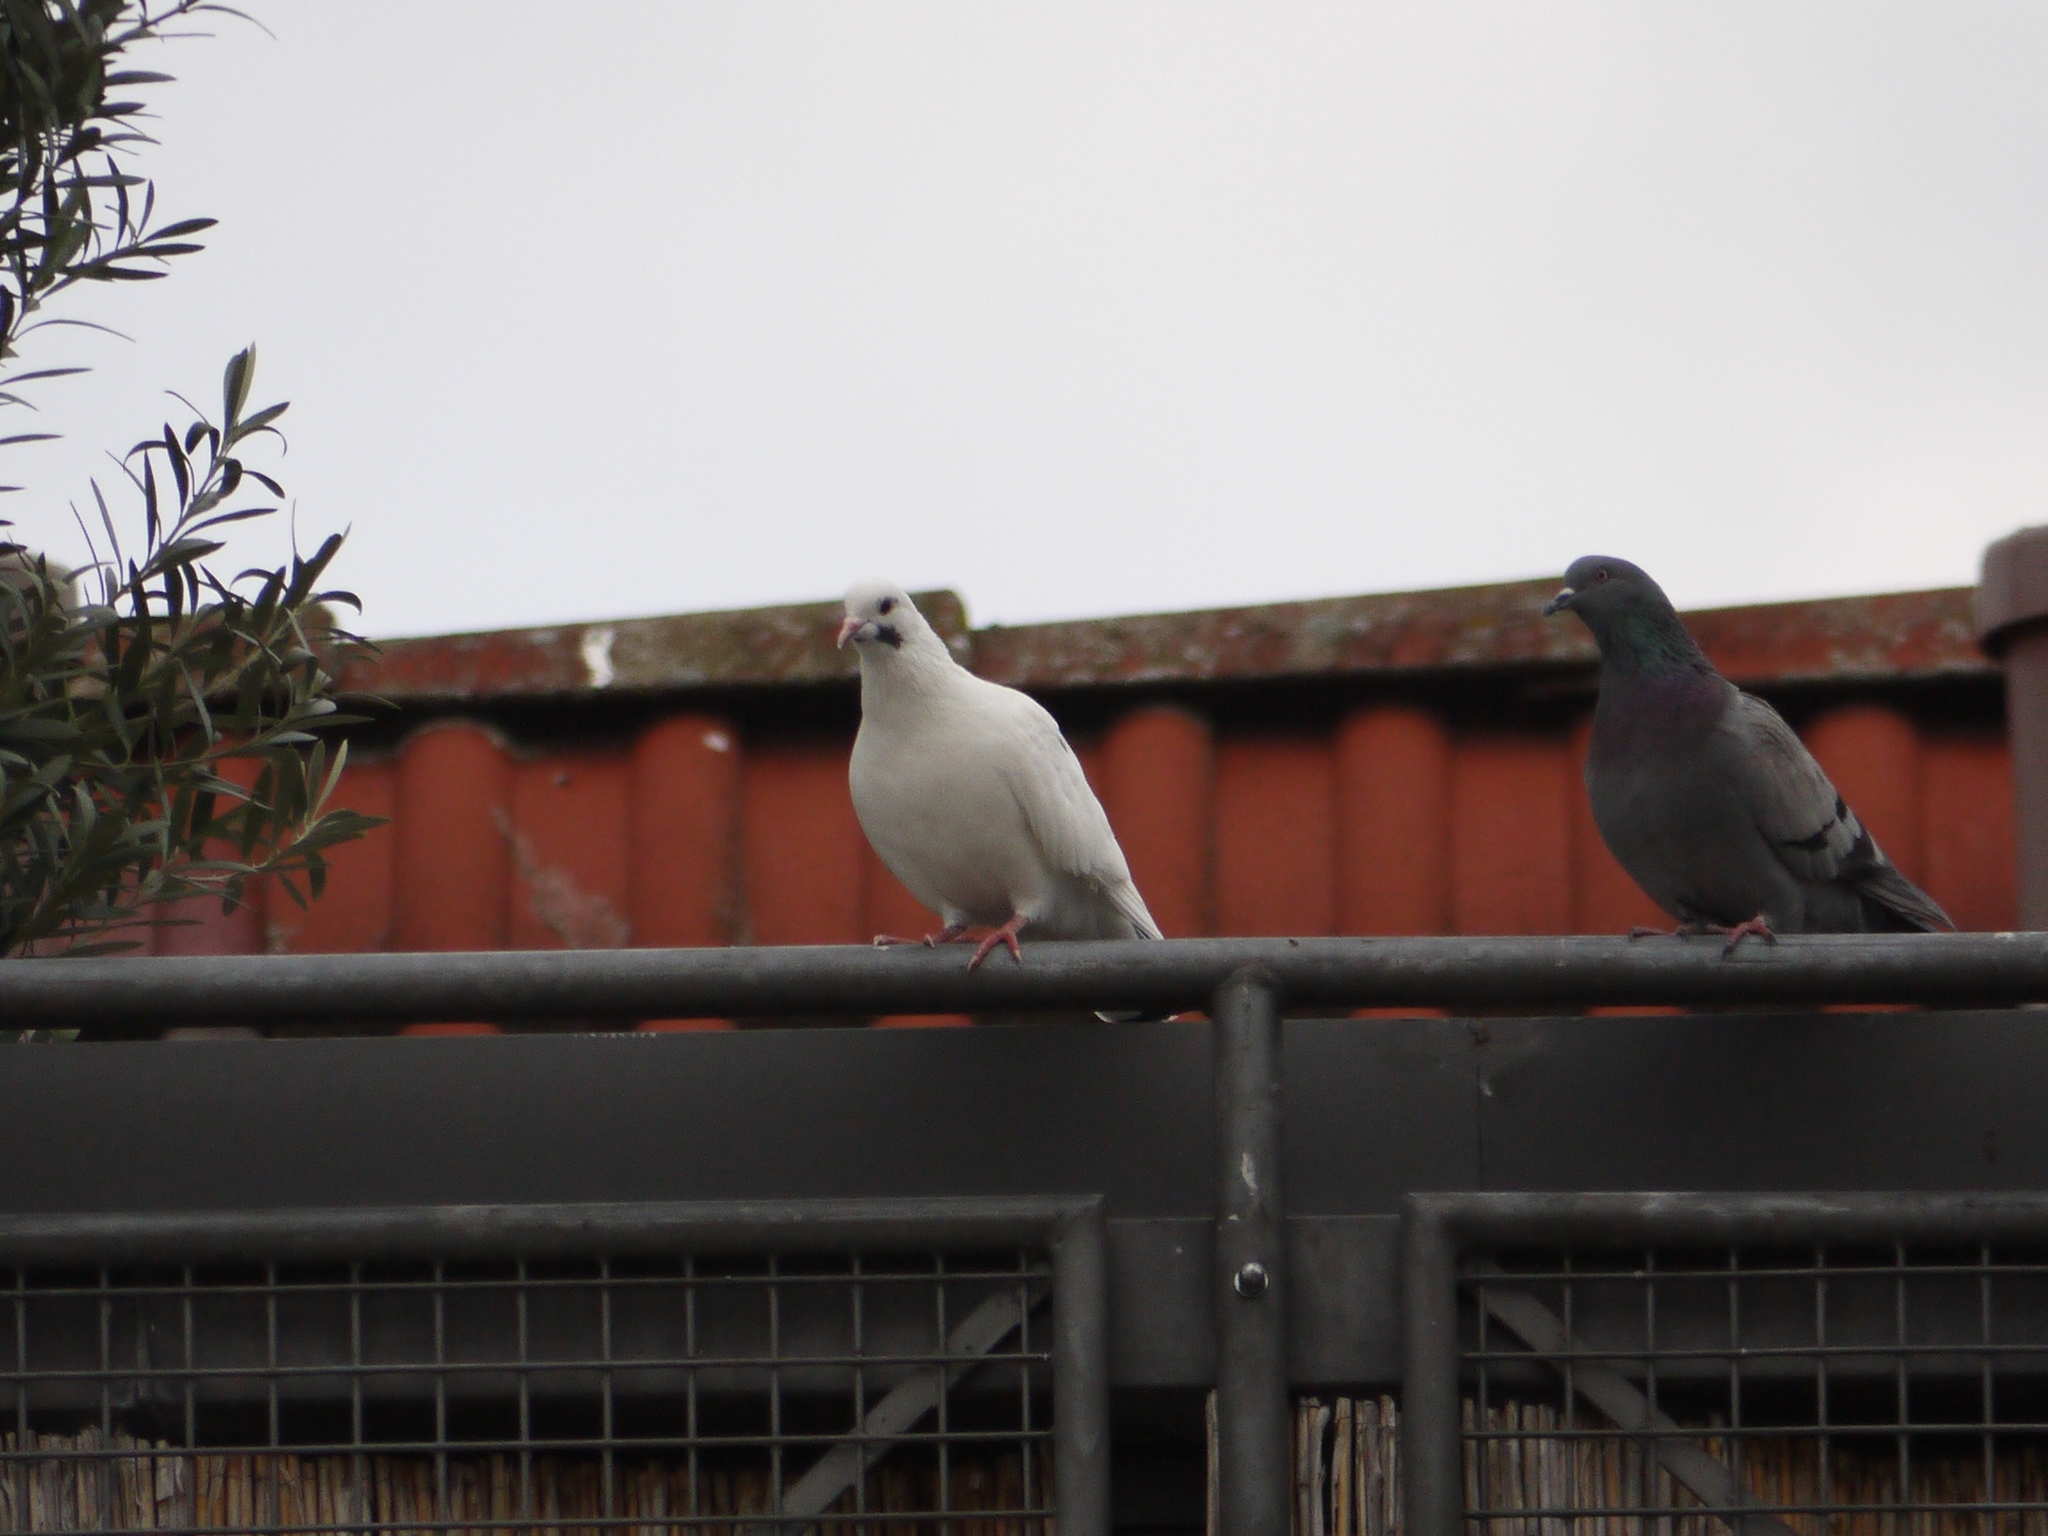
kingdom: Animalia
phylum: Chordata
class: Aves
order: Columbiformes
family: Columbidae
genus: Columba
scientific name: Columba livia
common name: Rock pigeon
